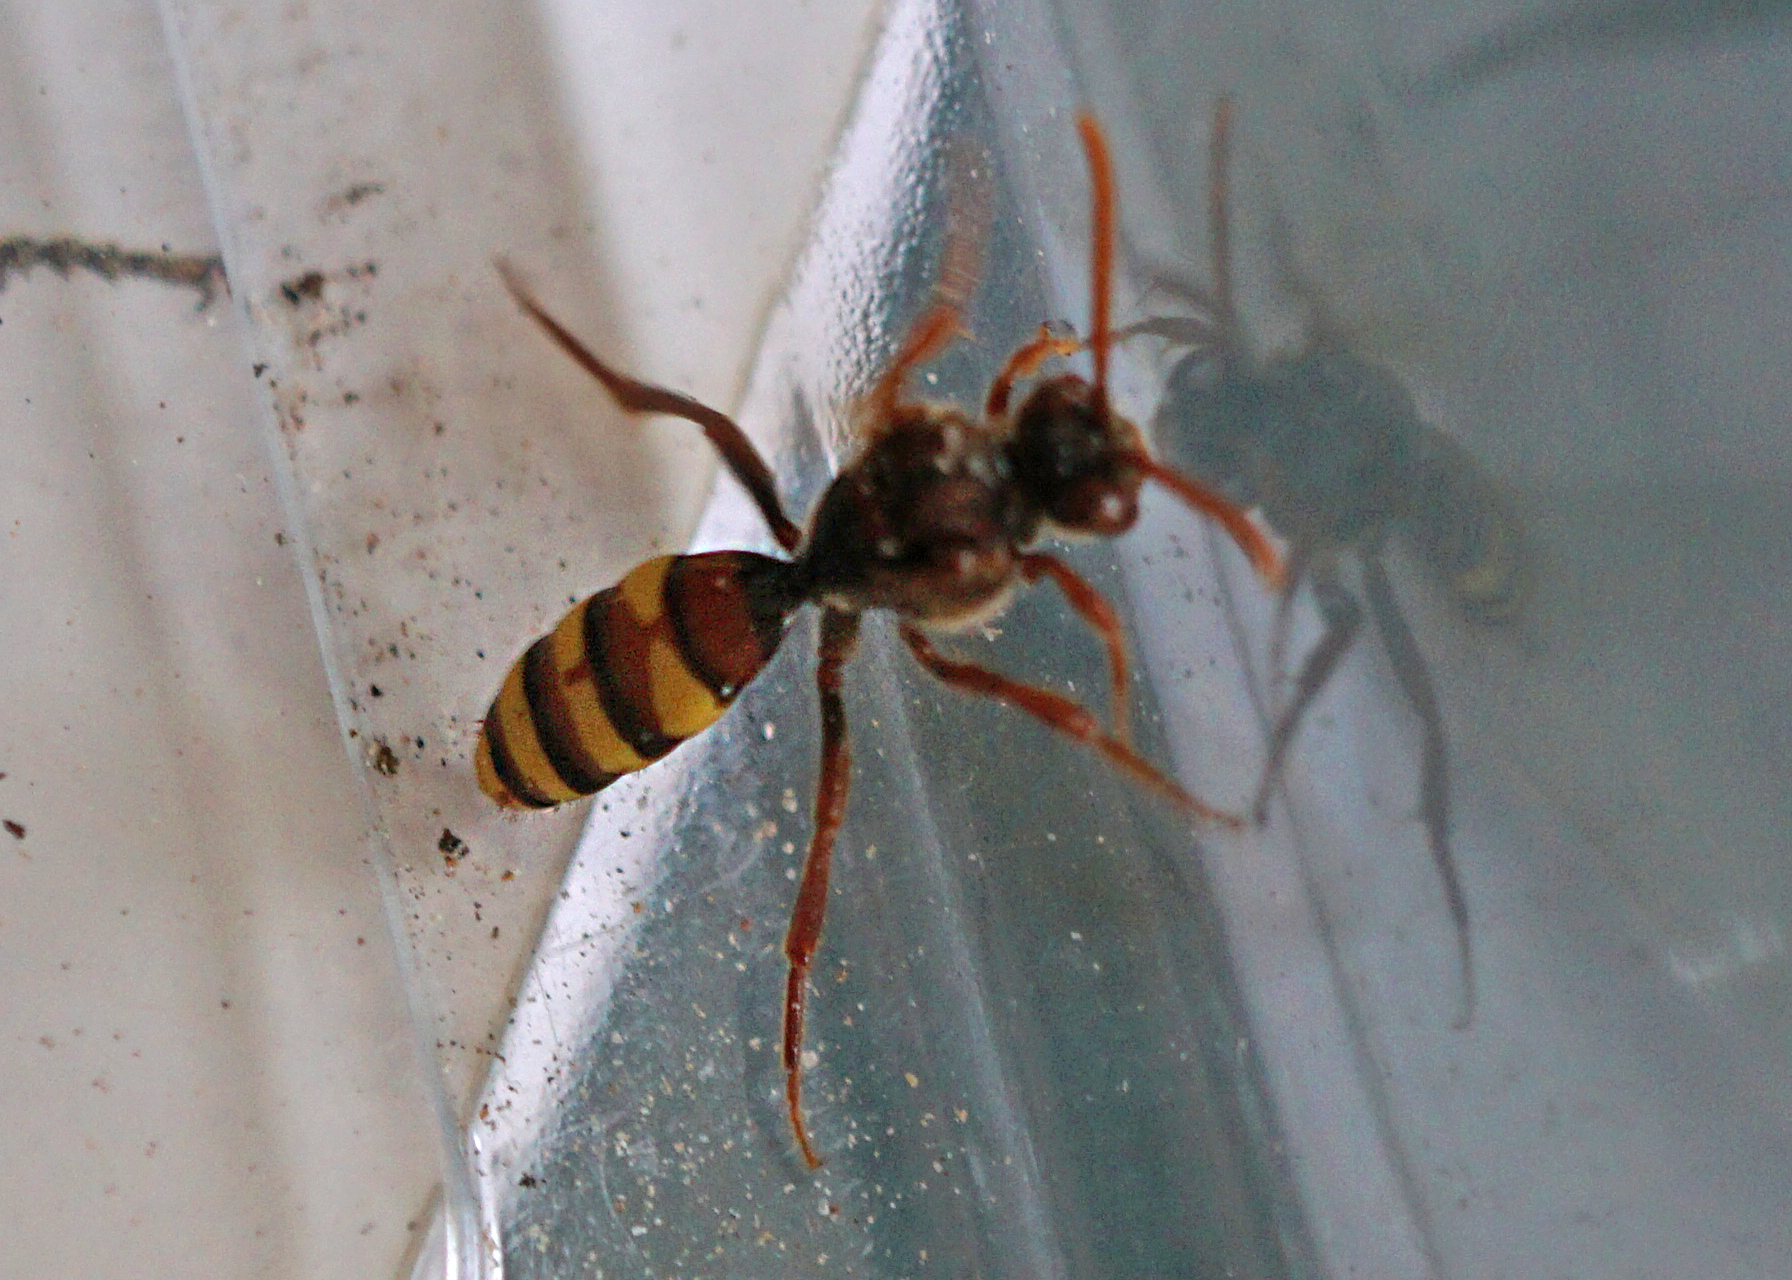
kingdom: Animalia
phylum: Arthropoda
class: Insecta
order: Hymenoptera
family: Apidae
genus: Nomada
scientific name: Nomada flava
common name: Flavous nomad bee
